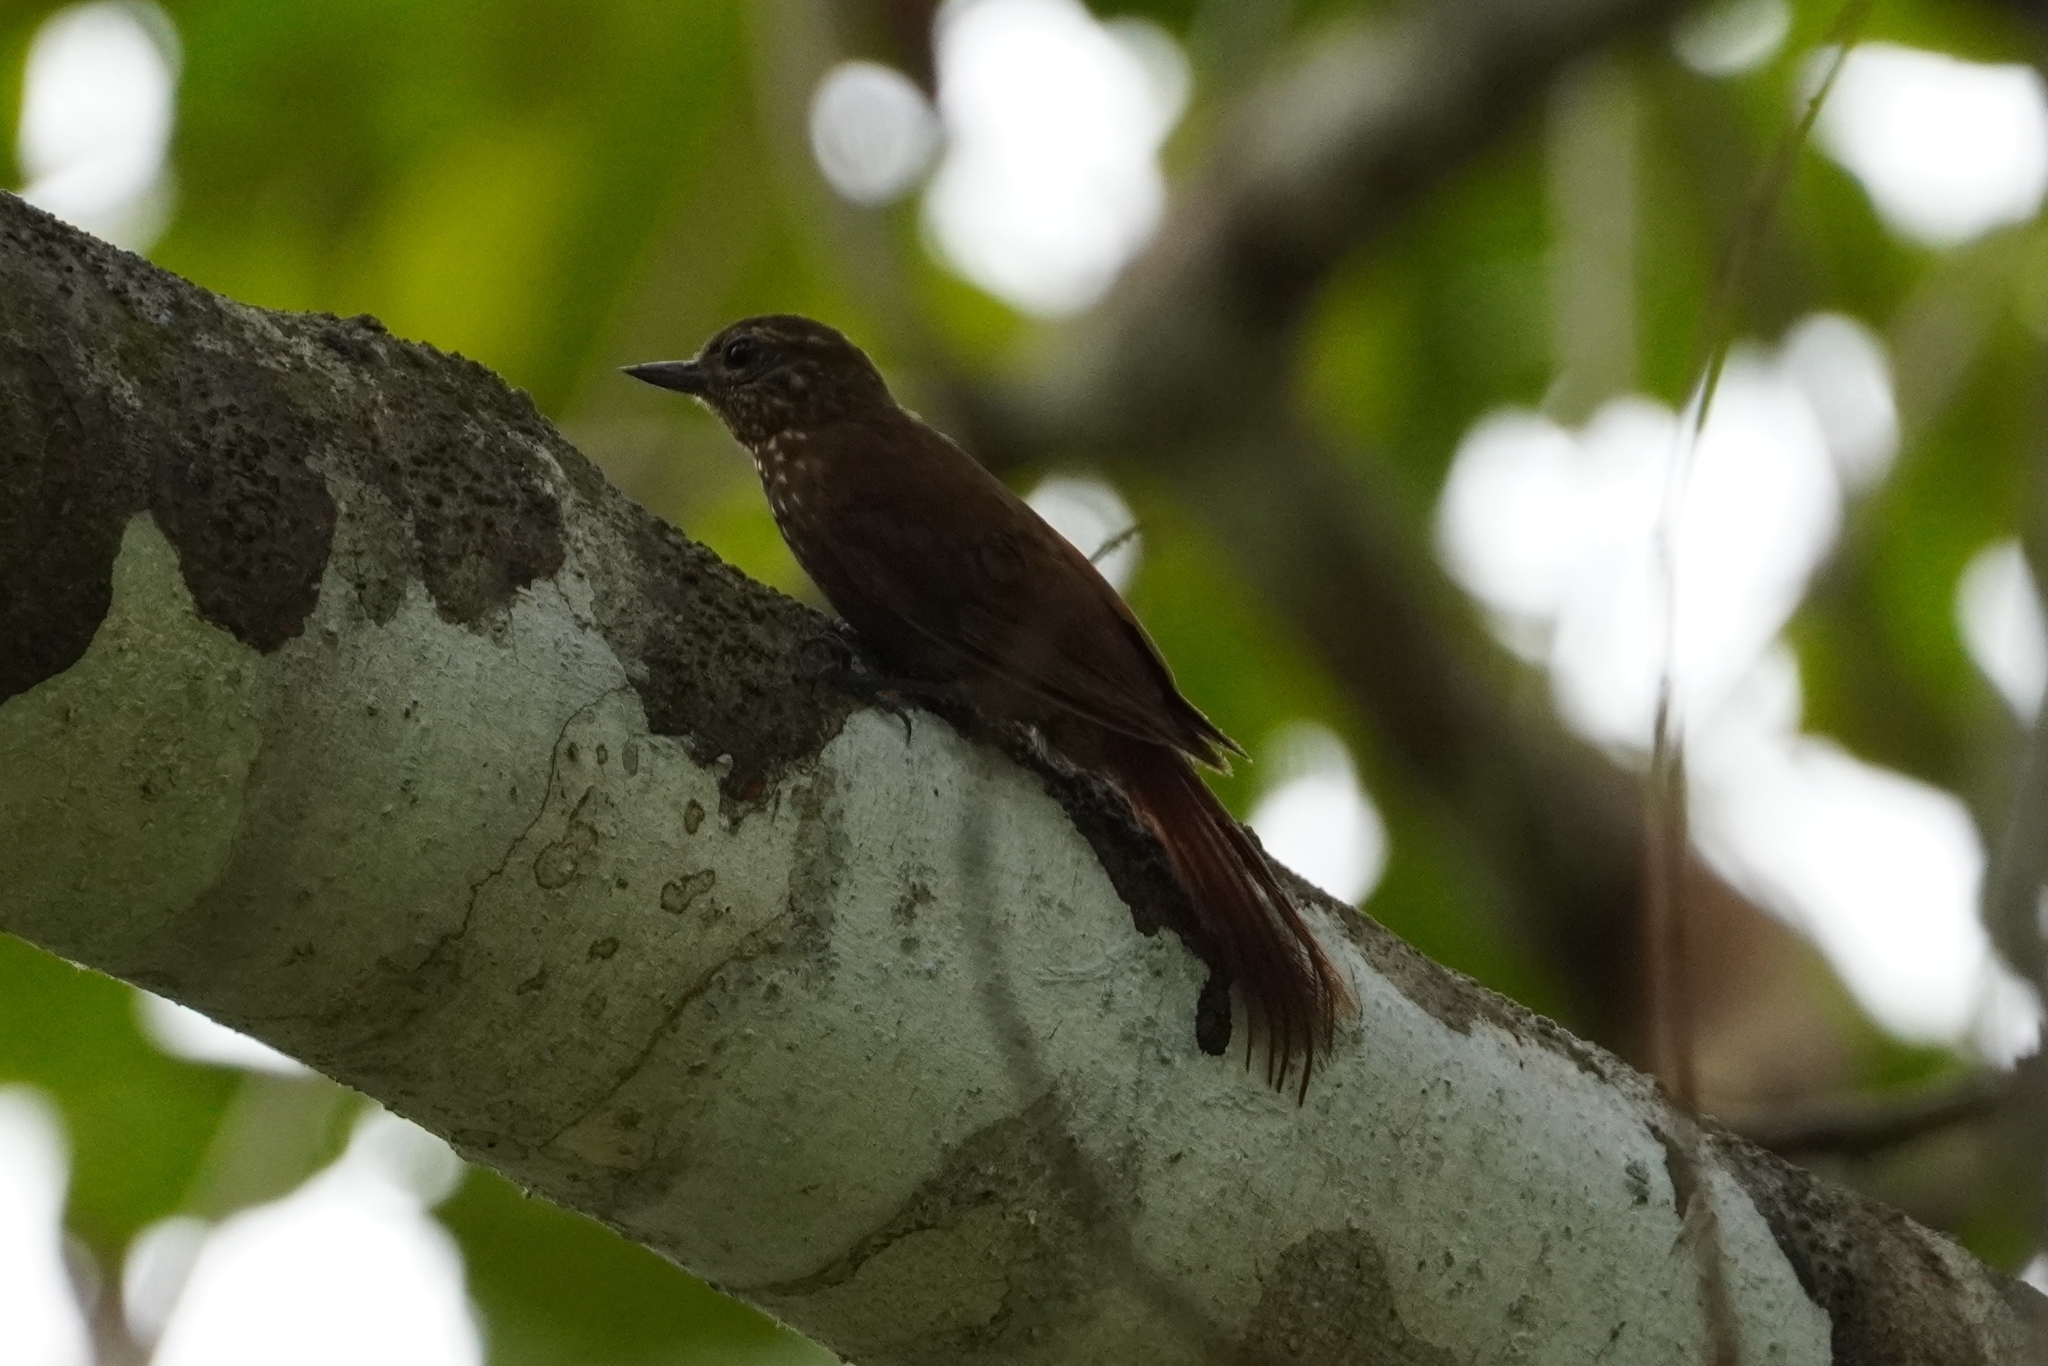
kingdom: Animalia
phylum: Chordata
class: Aves
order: Passeriformes
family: Furnariidae
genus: Glyphorynchus
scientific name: Glyphorynchus spirurus
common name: Wedge-billed woodcreeper
